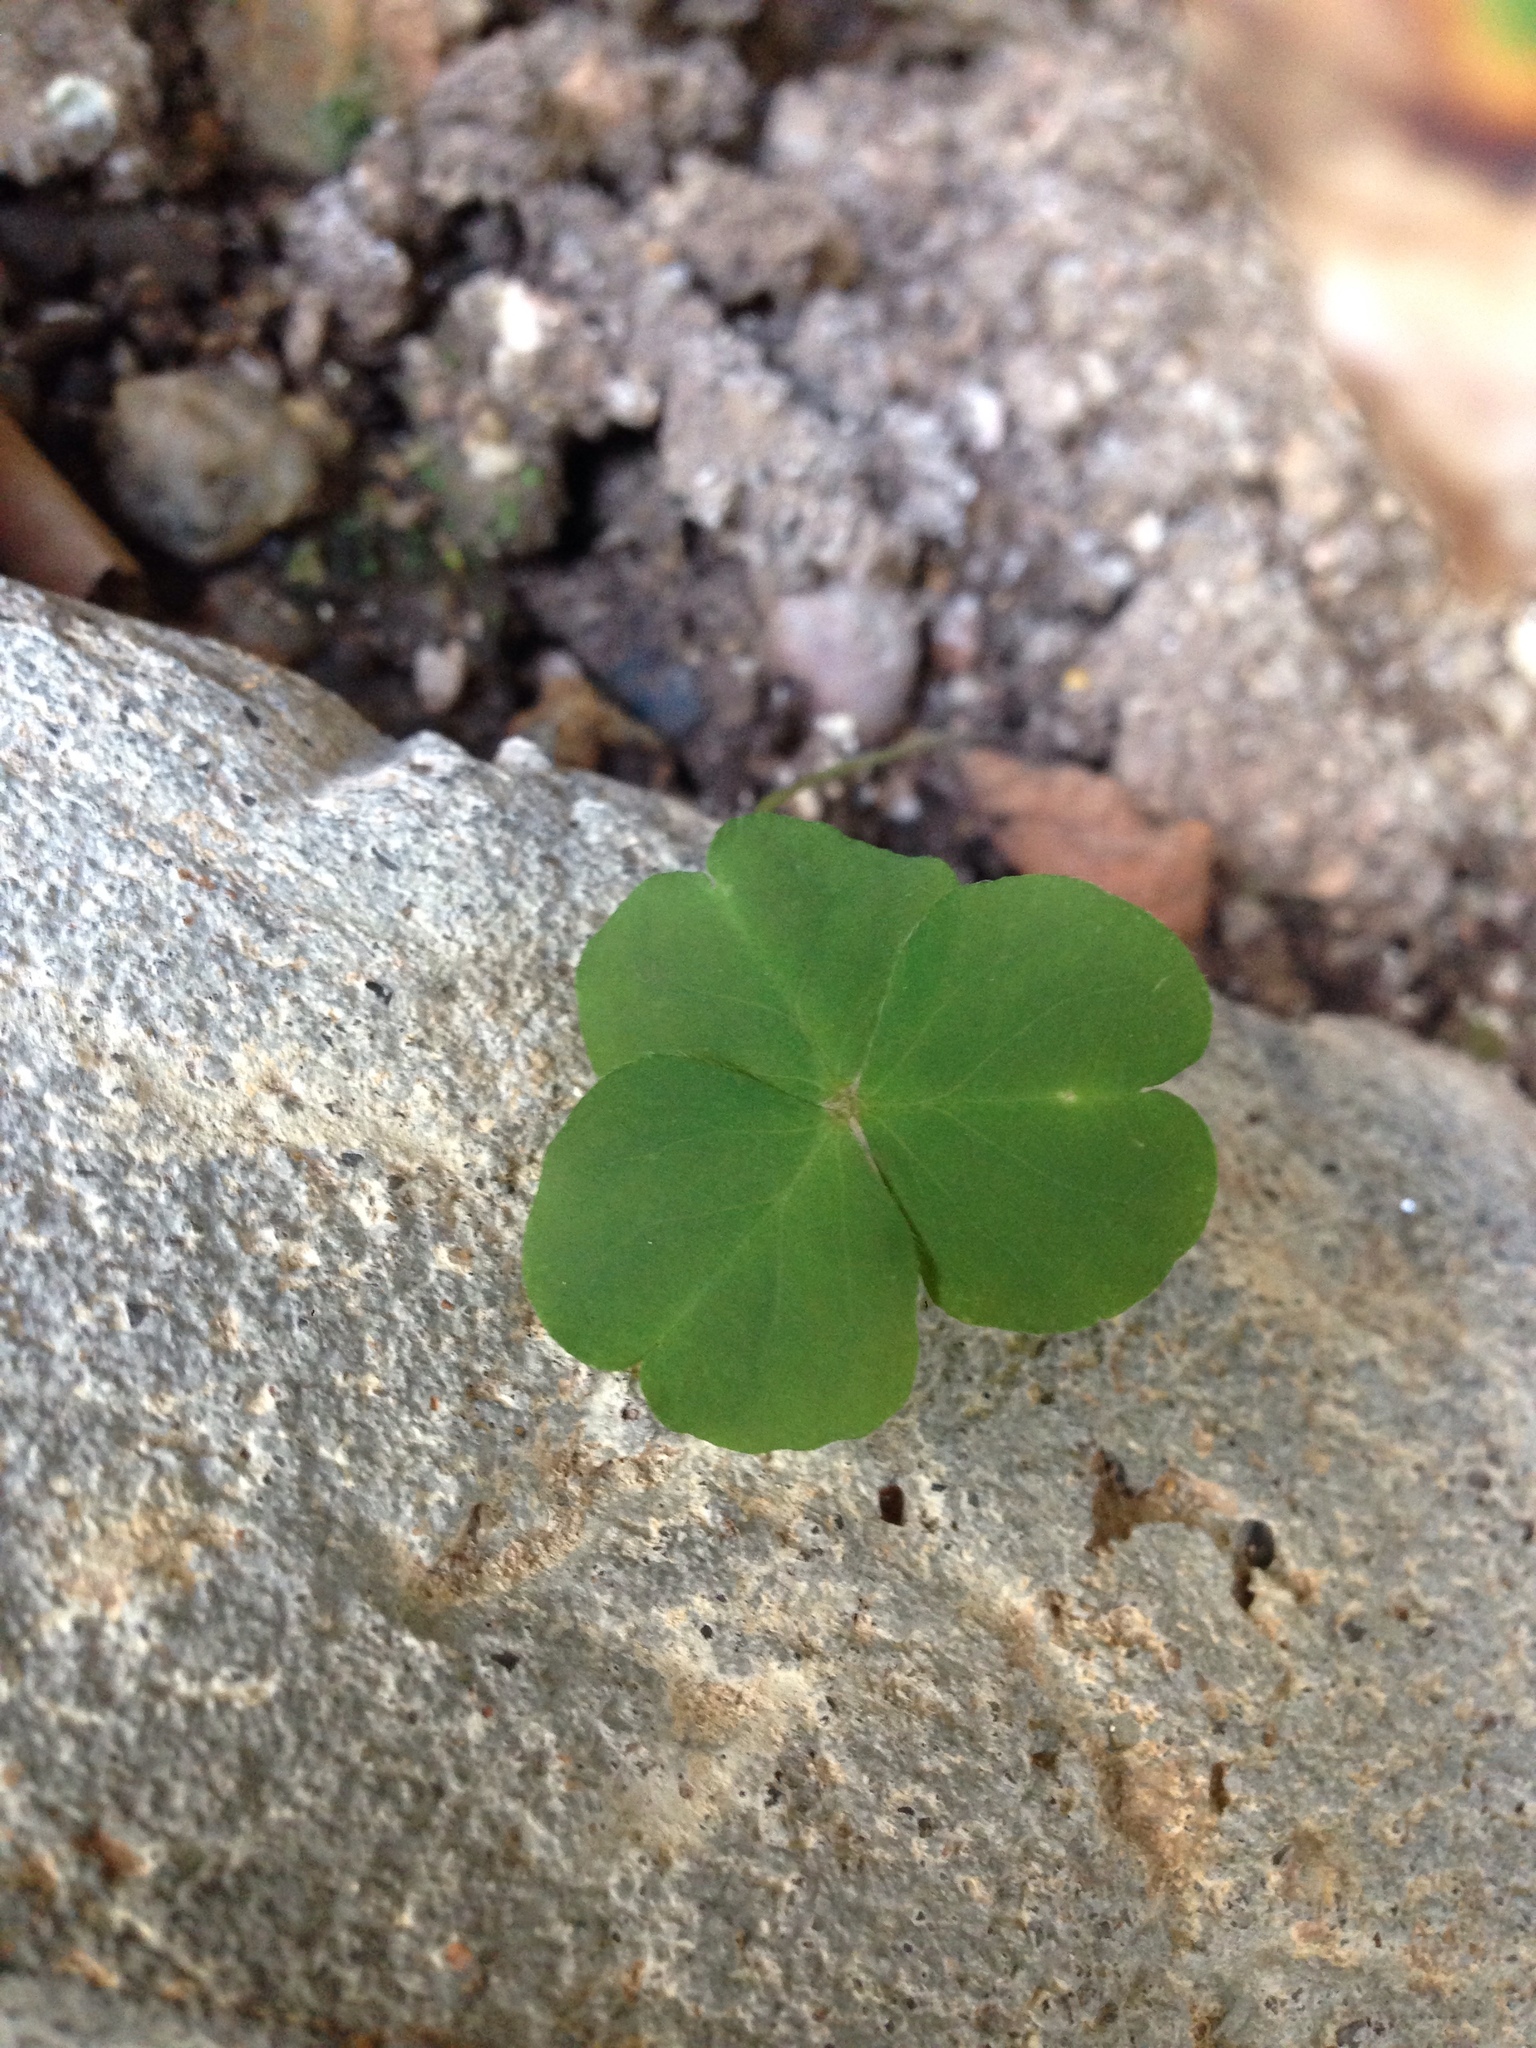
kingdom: Plantae
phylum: Tracheophyta
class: Magnoliopsida
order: Oxalidales
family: Oxalidaceae
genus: Oxalis
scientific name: Oxalis debilis
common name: Large-flowered pink-sorrel
